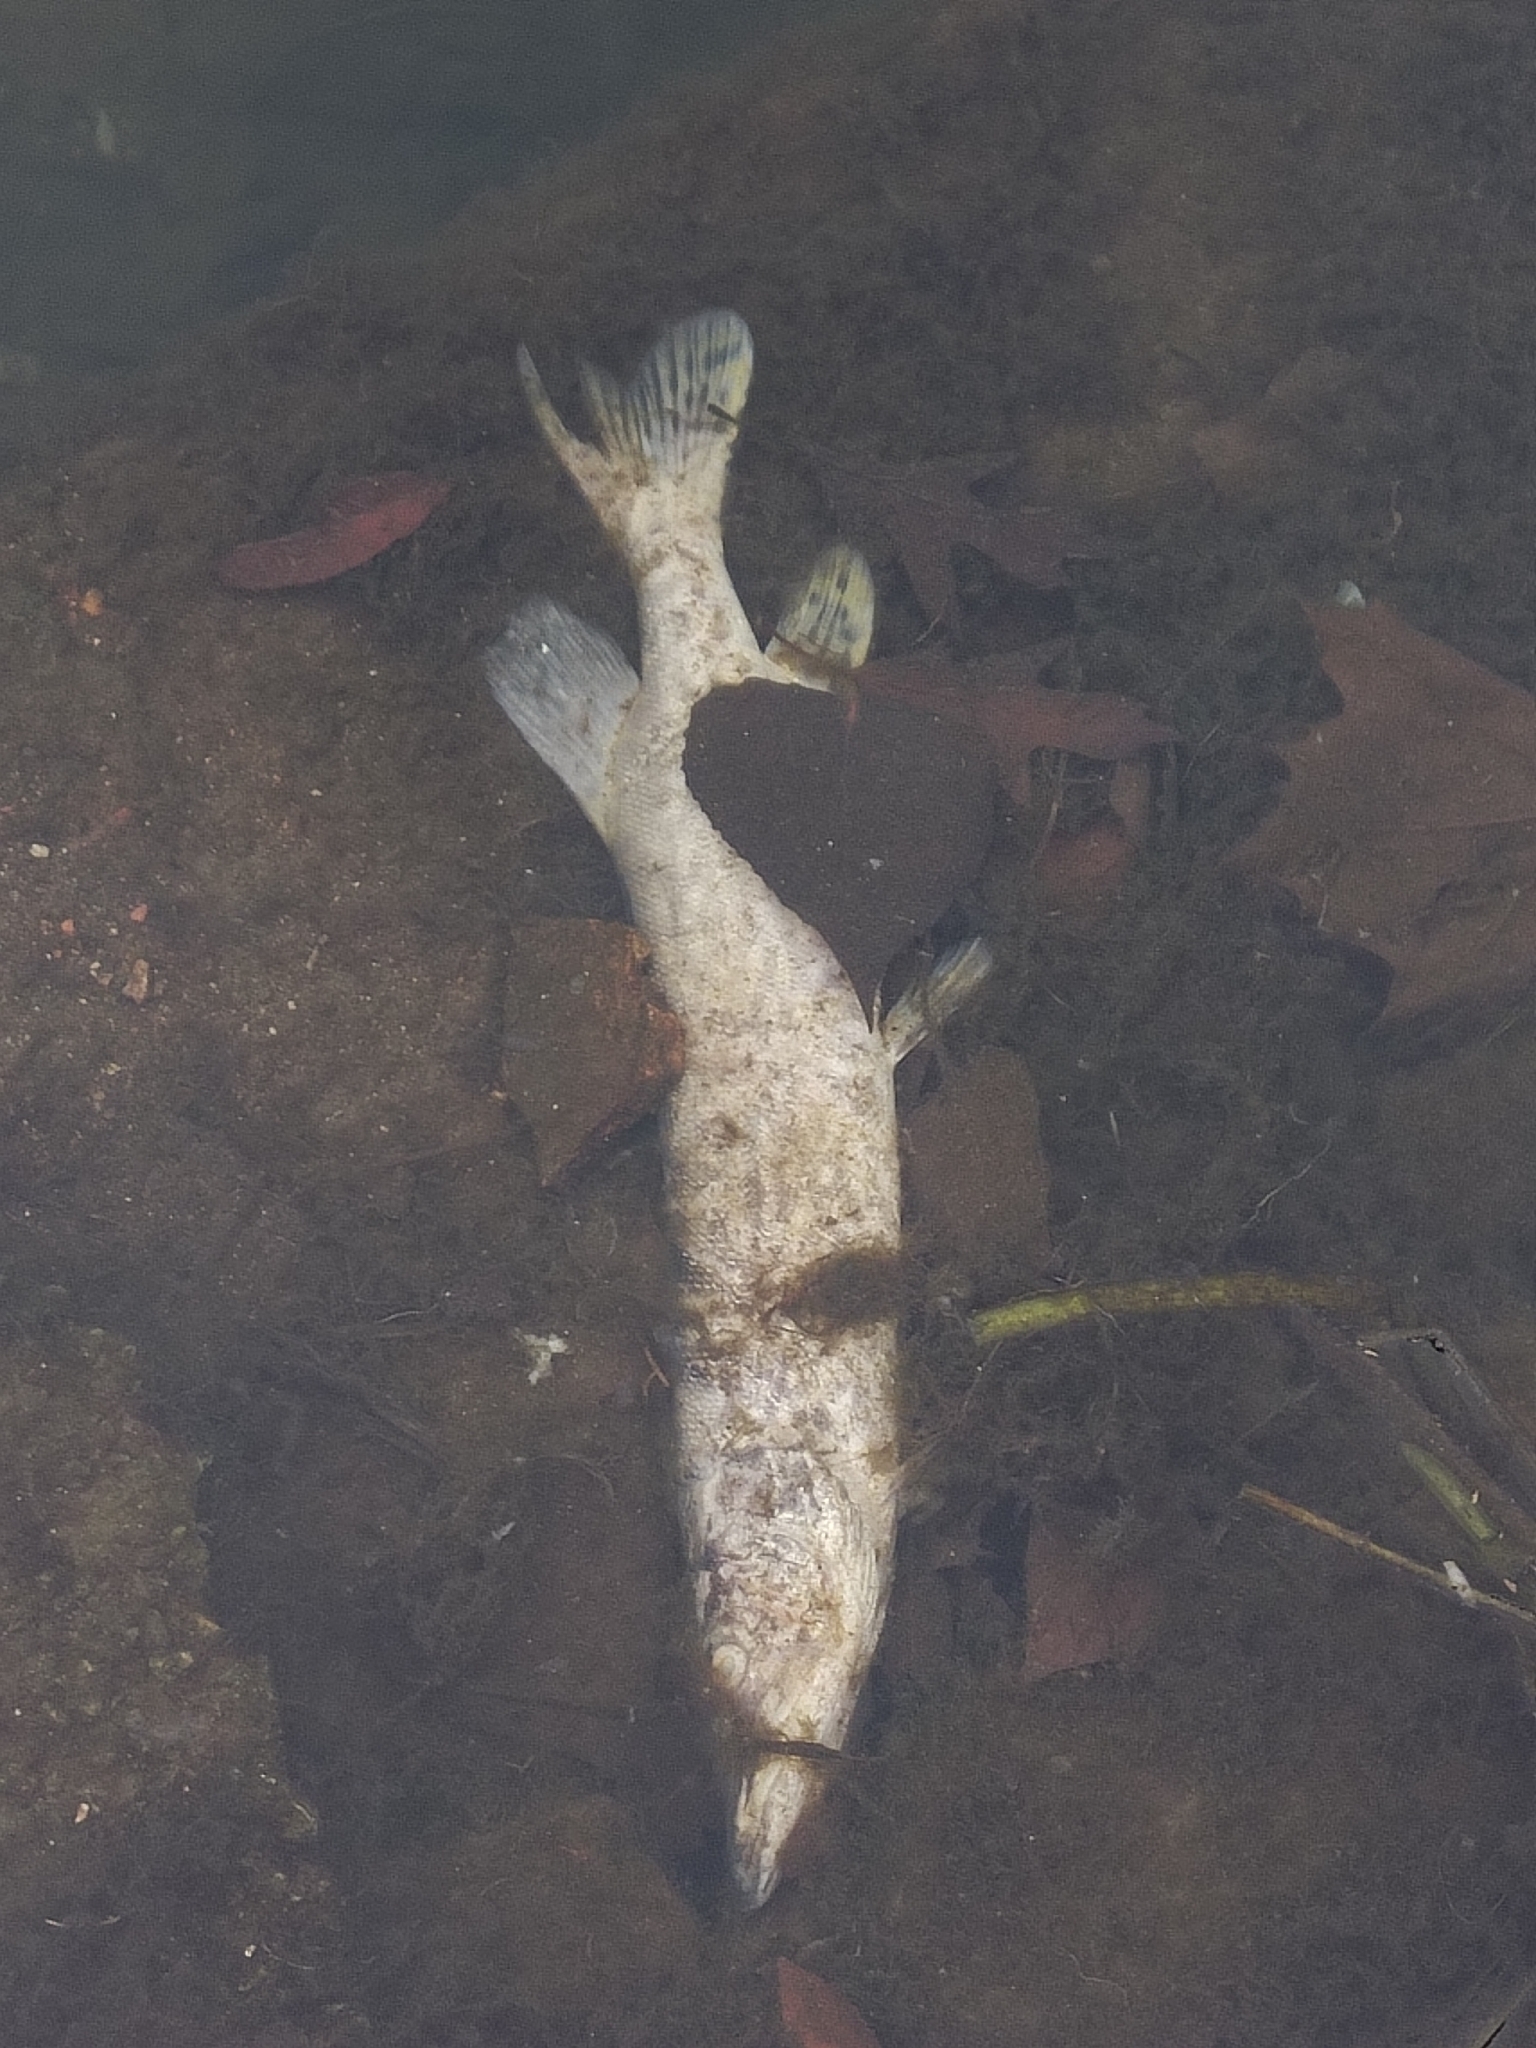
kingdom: Animalia
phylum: Chordata
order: Esociformes
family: Esocidae
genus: Esox
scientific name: Esox cisalpinus
